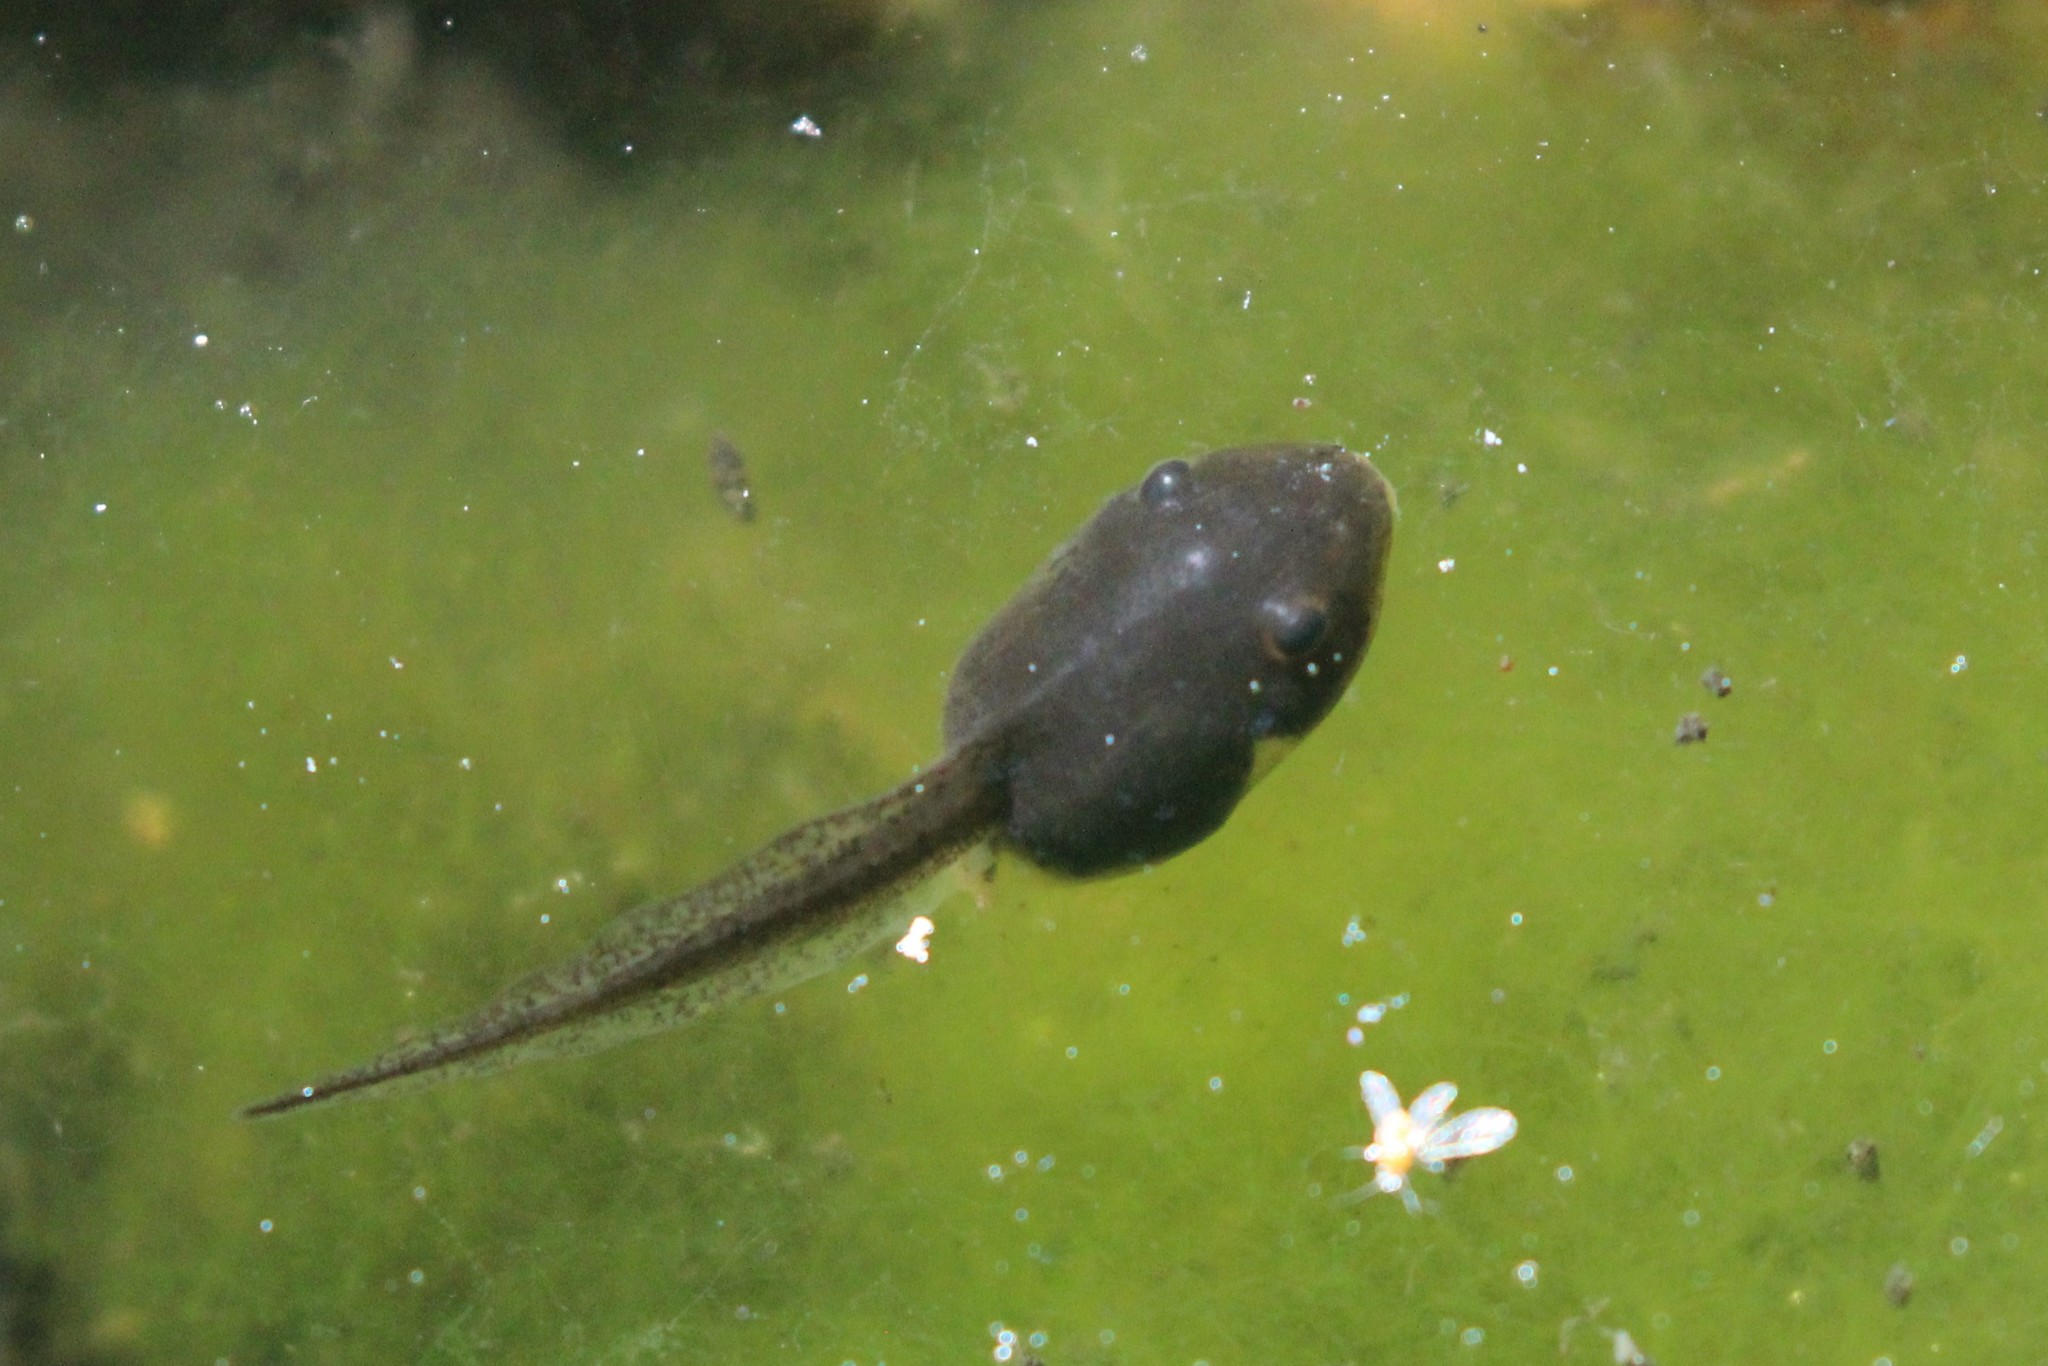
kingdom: Animalia
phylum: Chordata
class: Amphibia
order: Anura
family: Ranidae
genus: Lithobates
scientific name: Lithobates sylvaticus
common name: Wood frog
